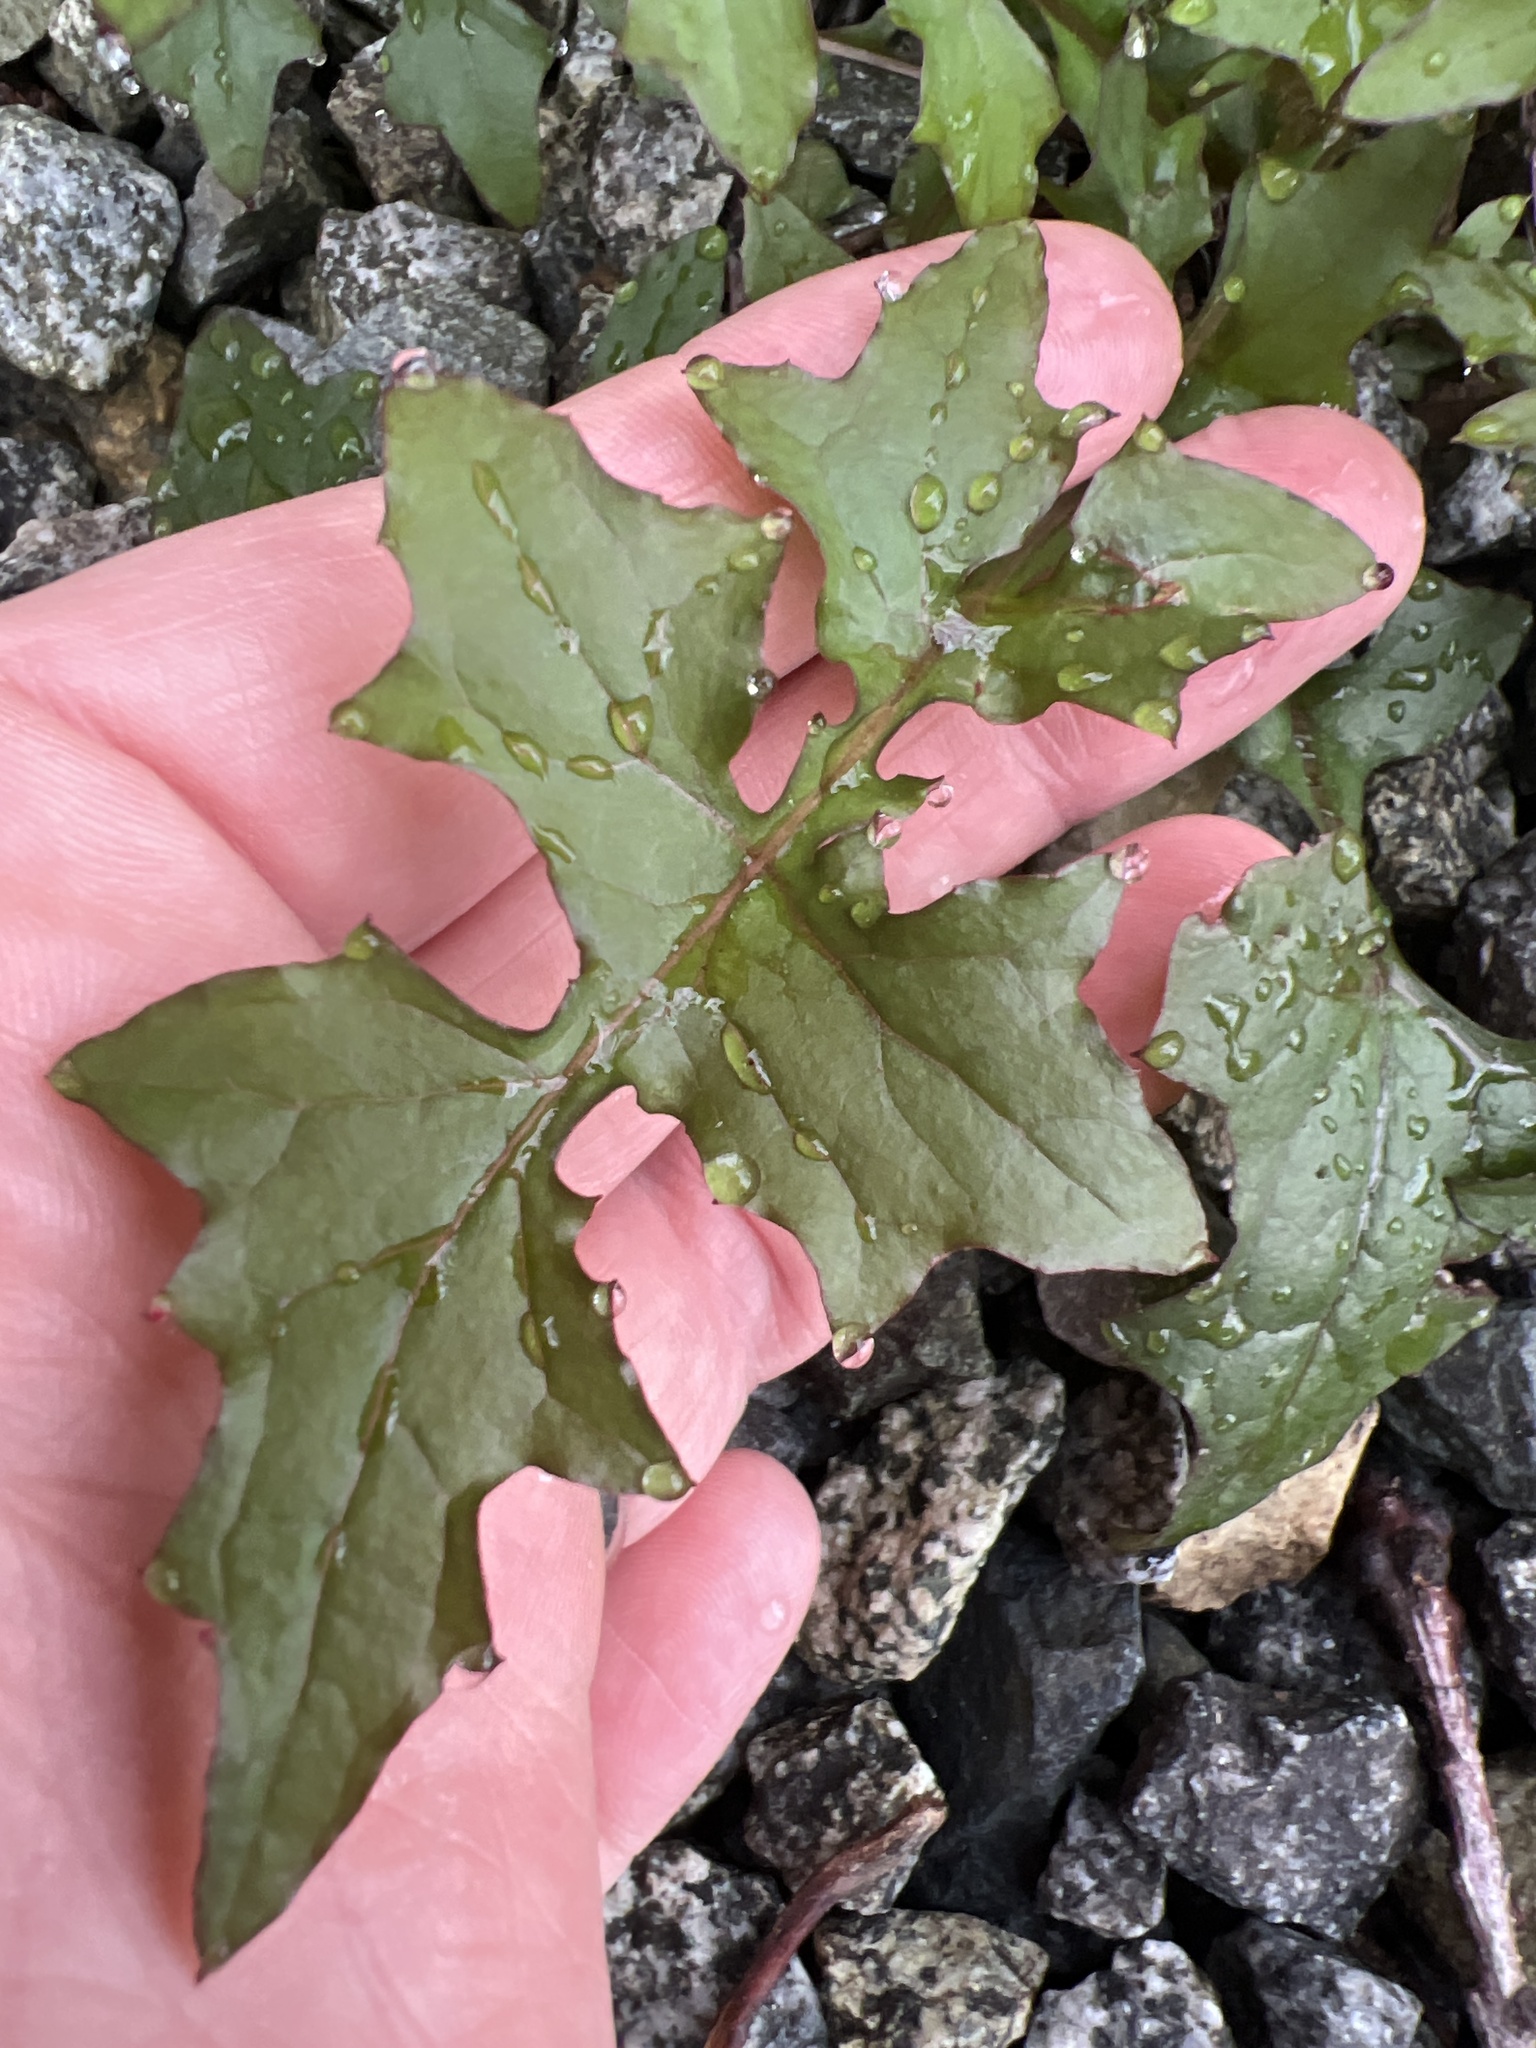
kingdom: Plantae
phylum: Tracheophyta
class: Magnoliopsida
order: Asterales
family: Asteraceae
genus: Mycelis
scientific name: Mycelis muralis
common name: Wall lettuce
